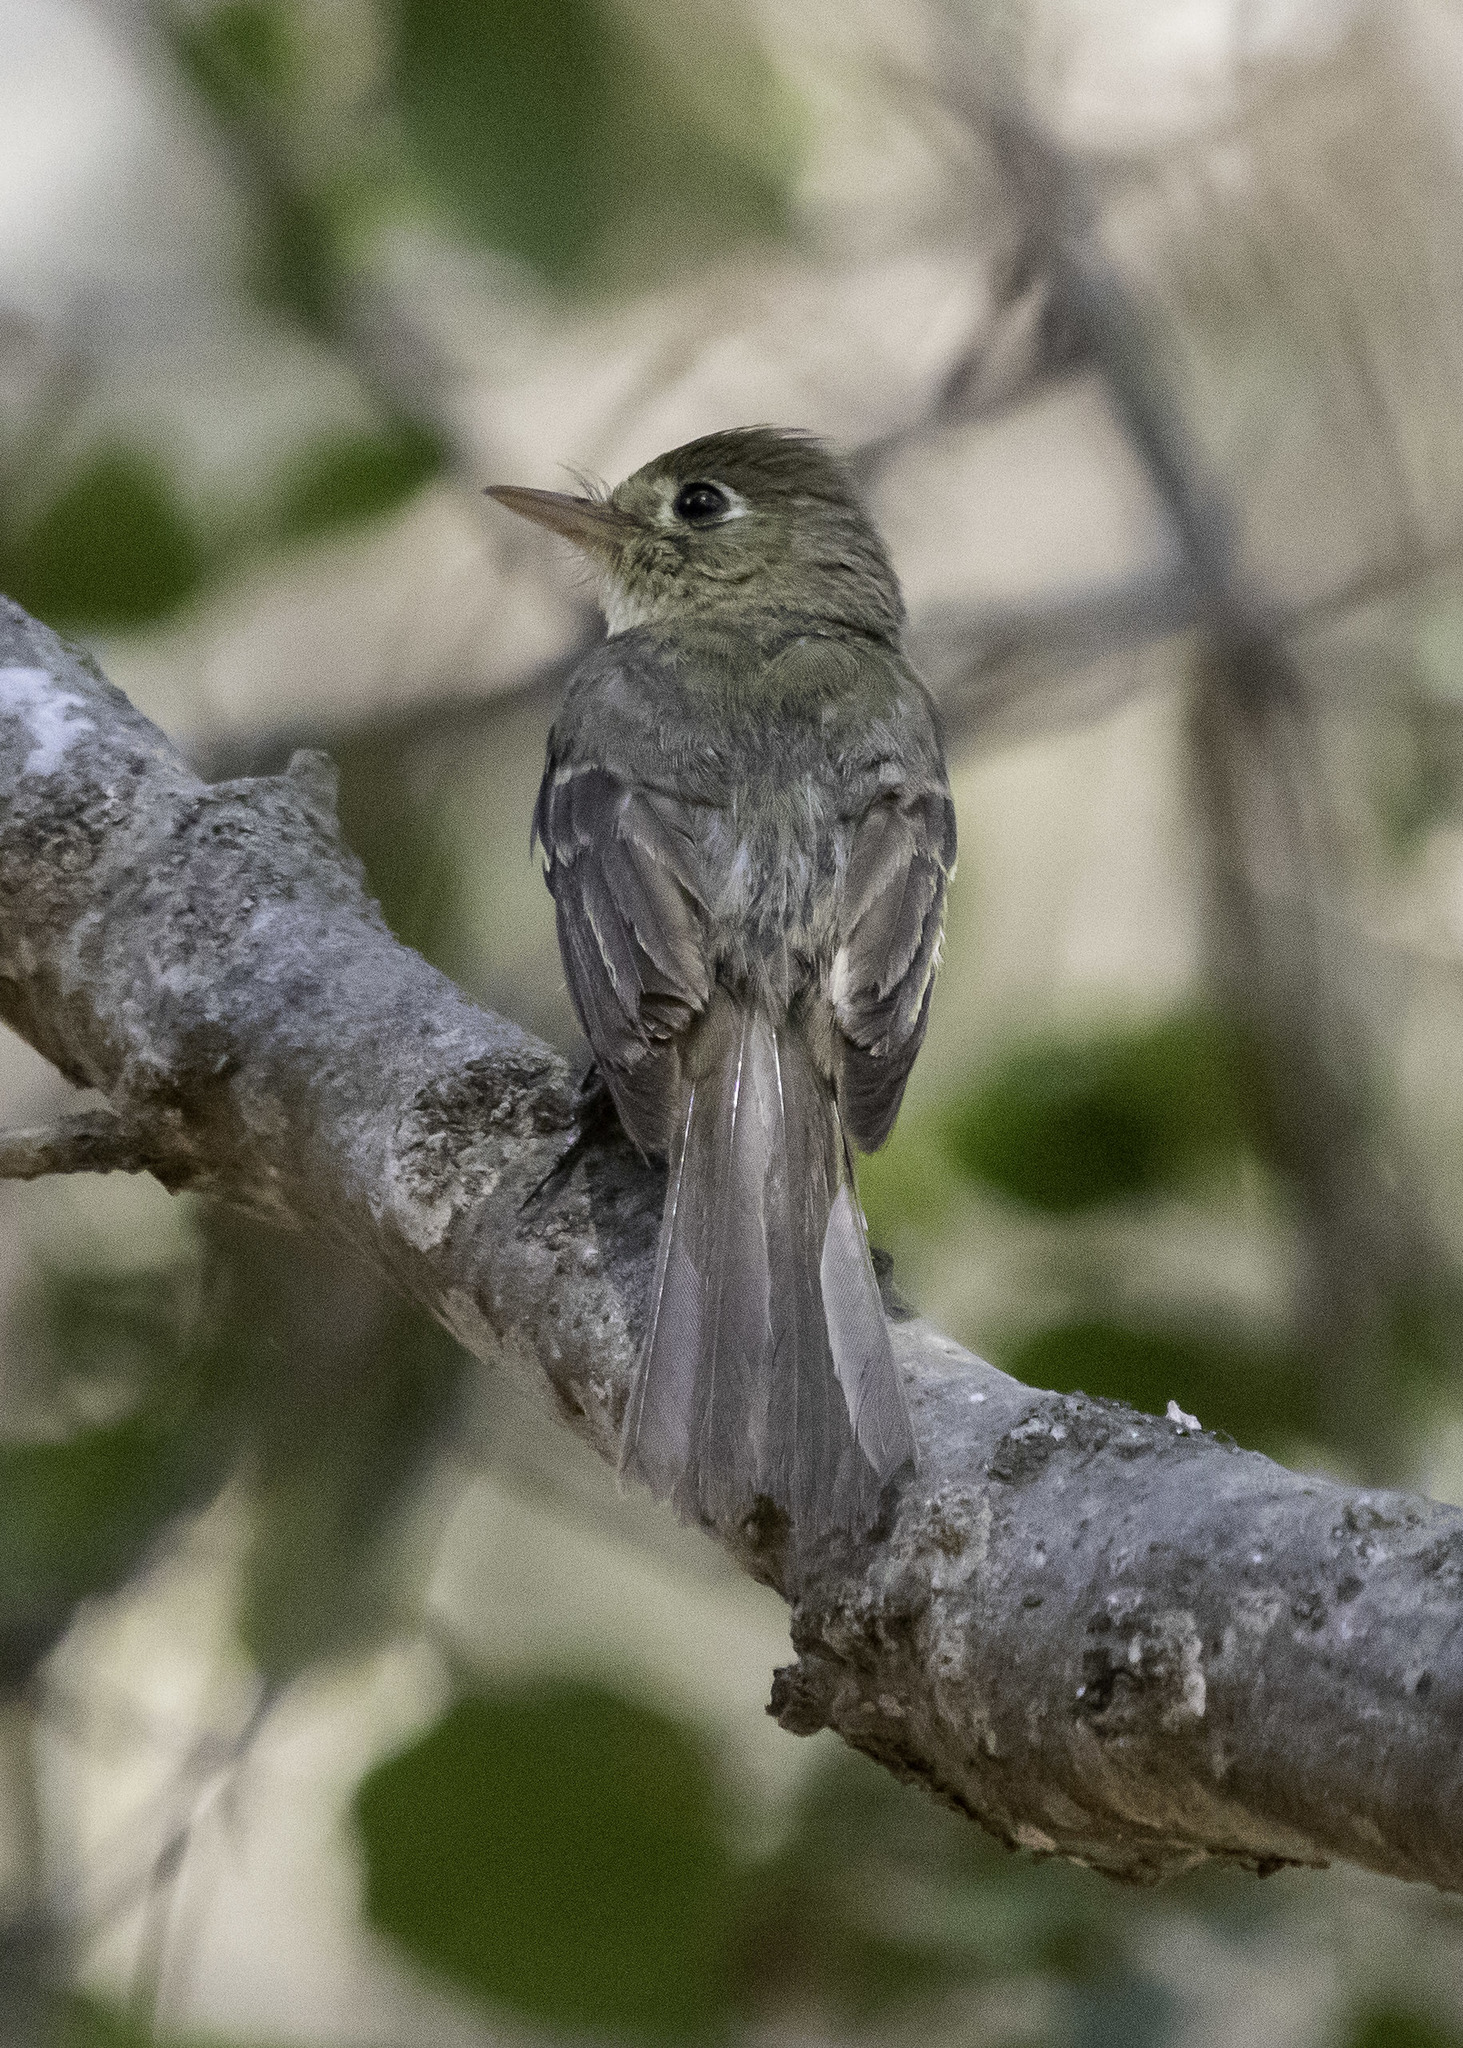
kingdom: Animalia
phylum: Chordata
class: Aves
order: Passeriformes
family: Tyrannidae
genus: Empidonax
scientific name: Empidonax difficilis
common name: Pacific-slope flycatcher
